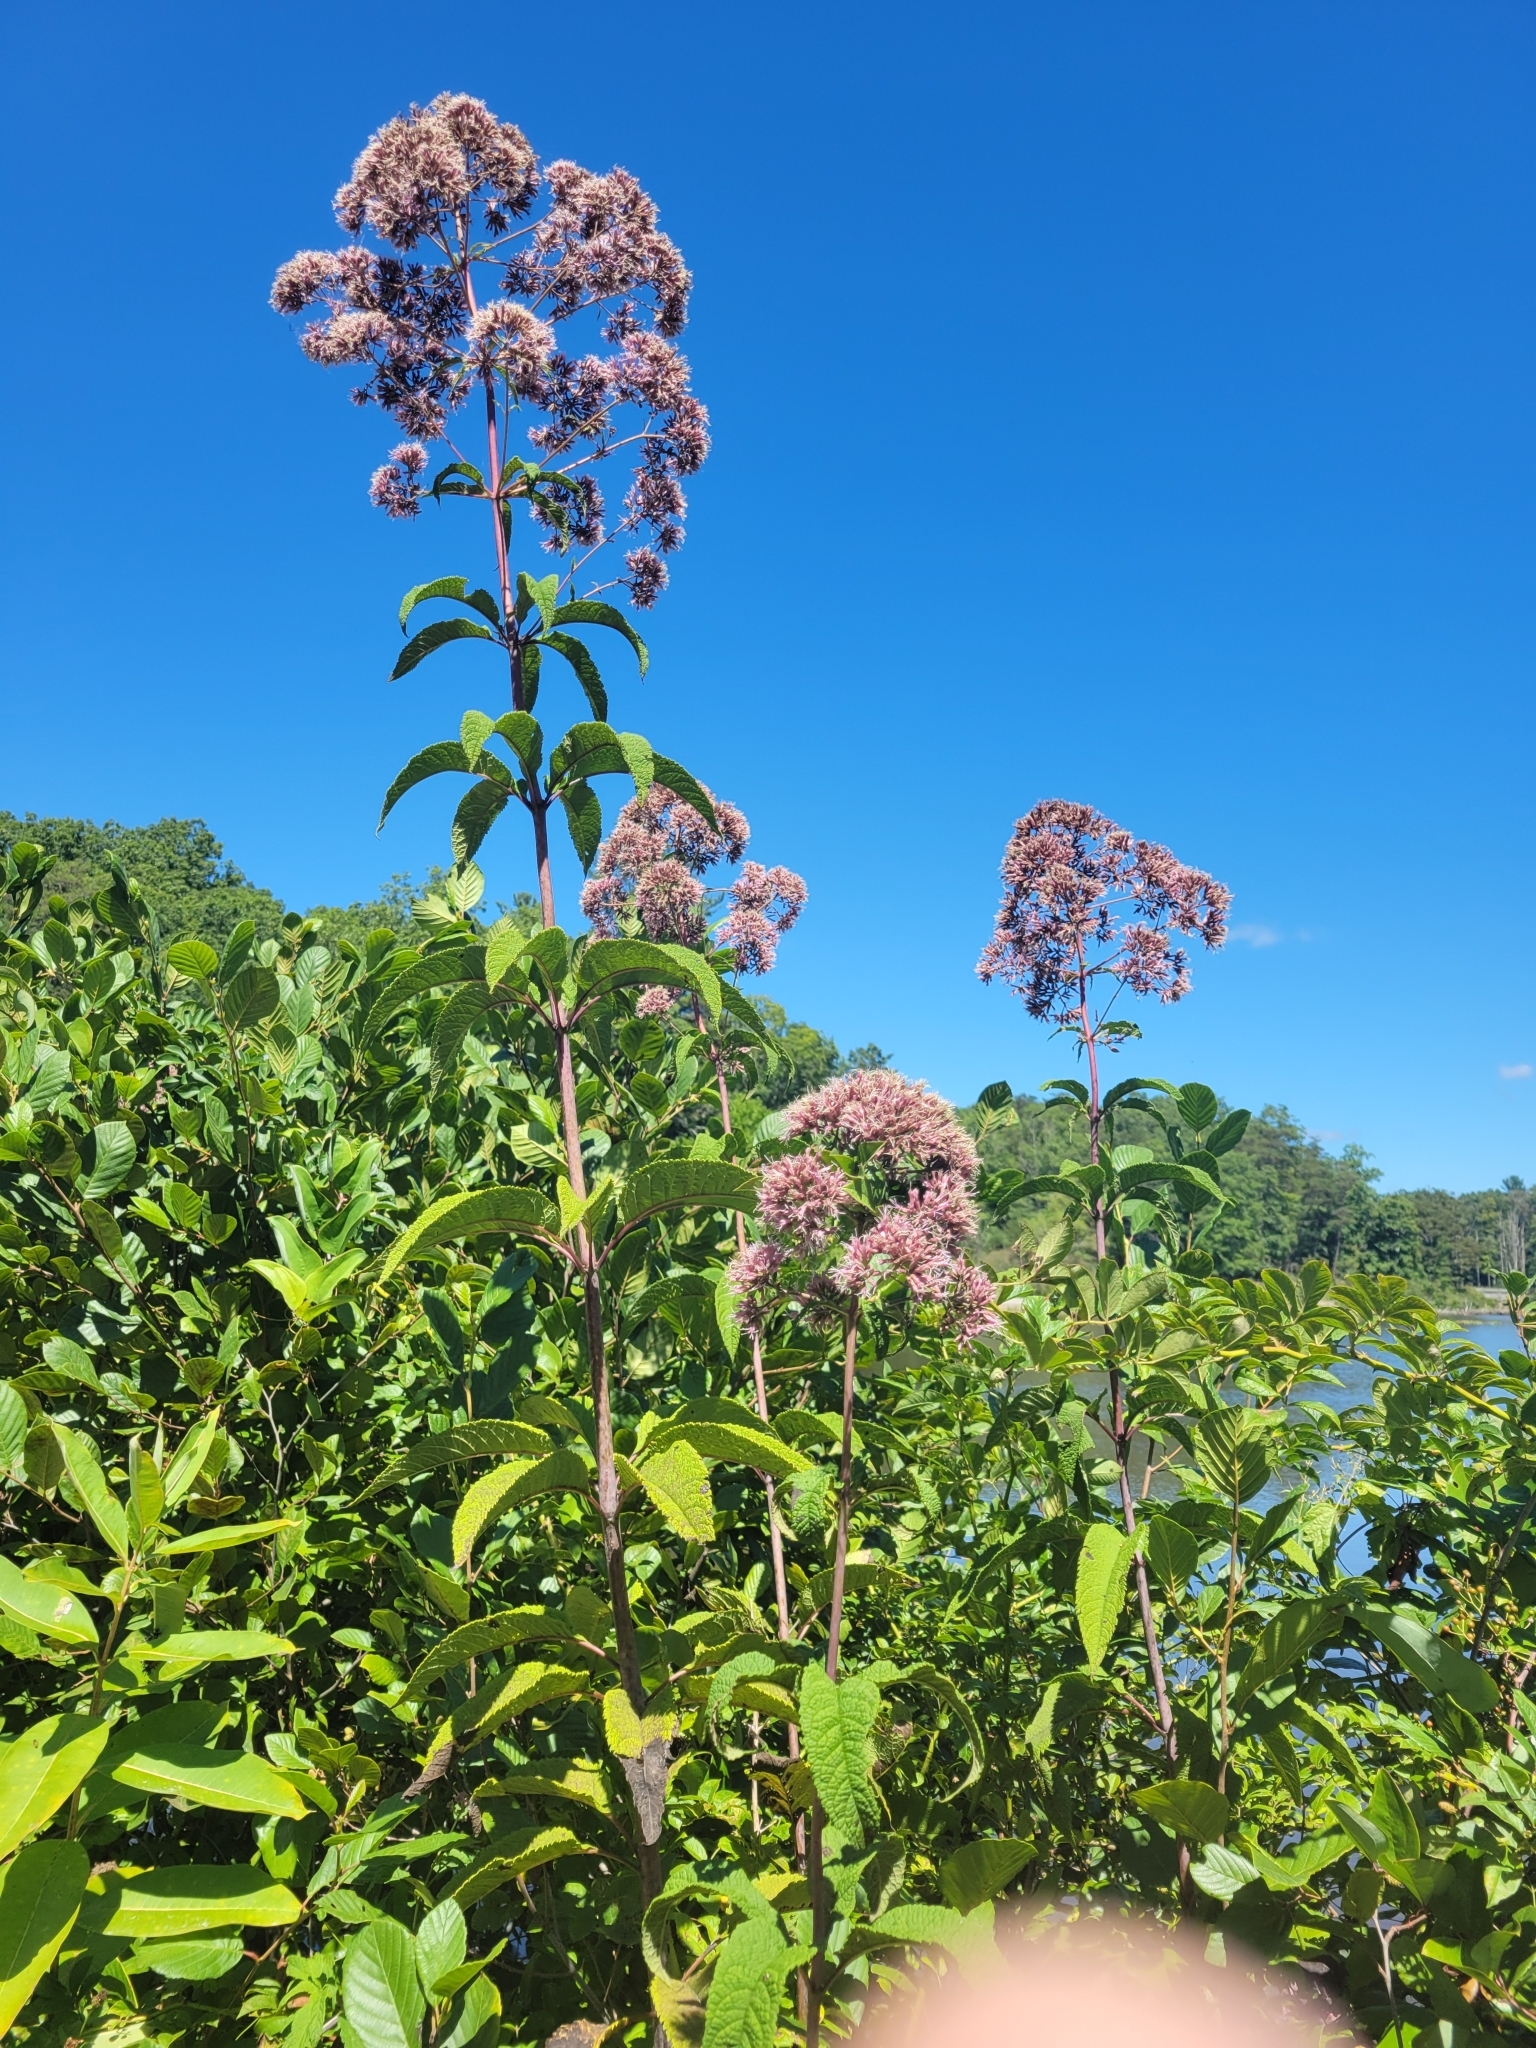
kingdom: Plantae
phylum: Tracheophyta
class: Magnoliopsida
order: Asterales
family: Asteraceae
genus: Eutrochium
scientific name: Eutrochium fistulosum
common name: Trumpetweed
